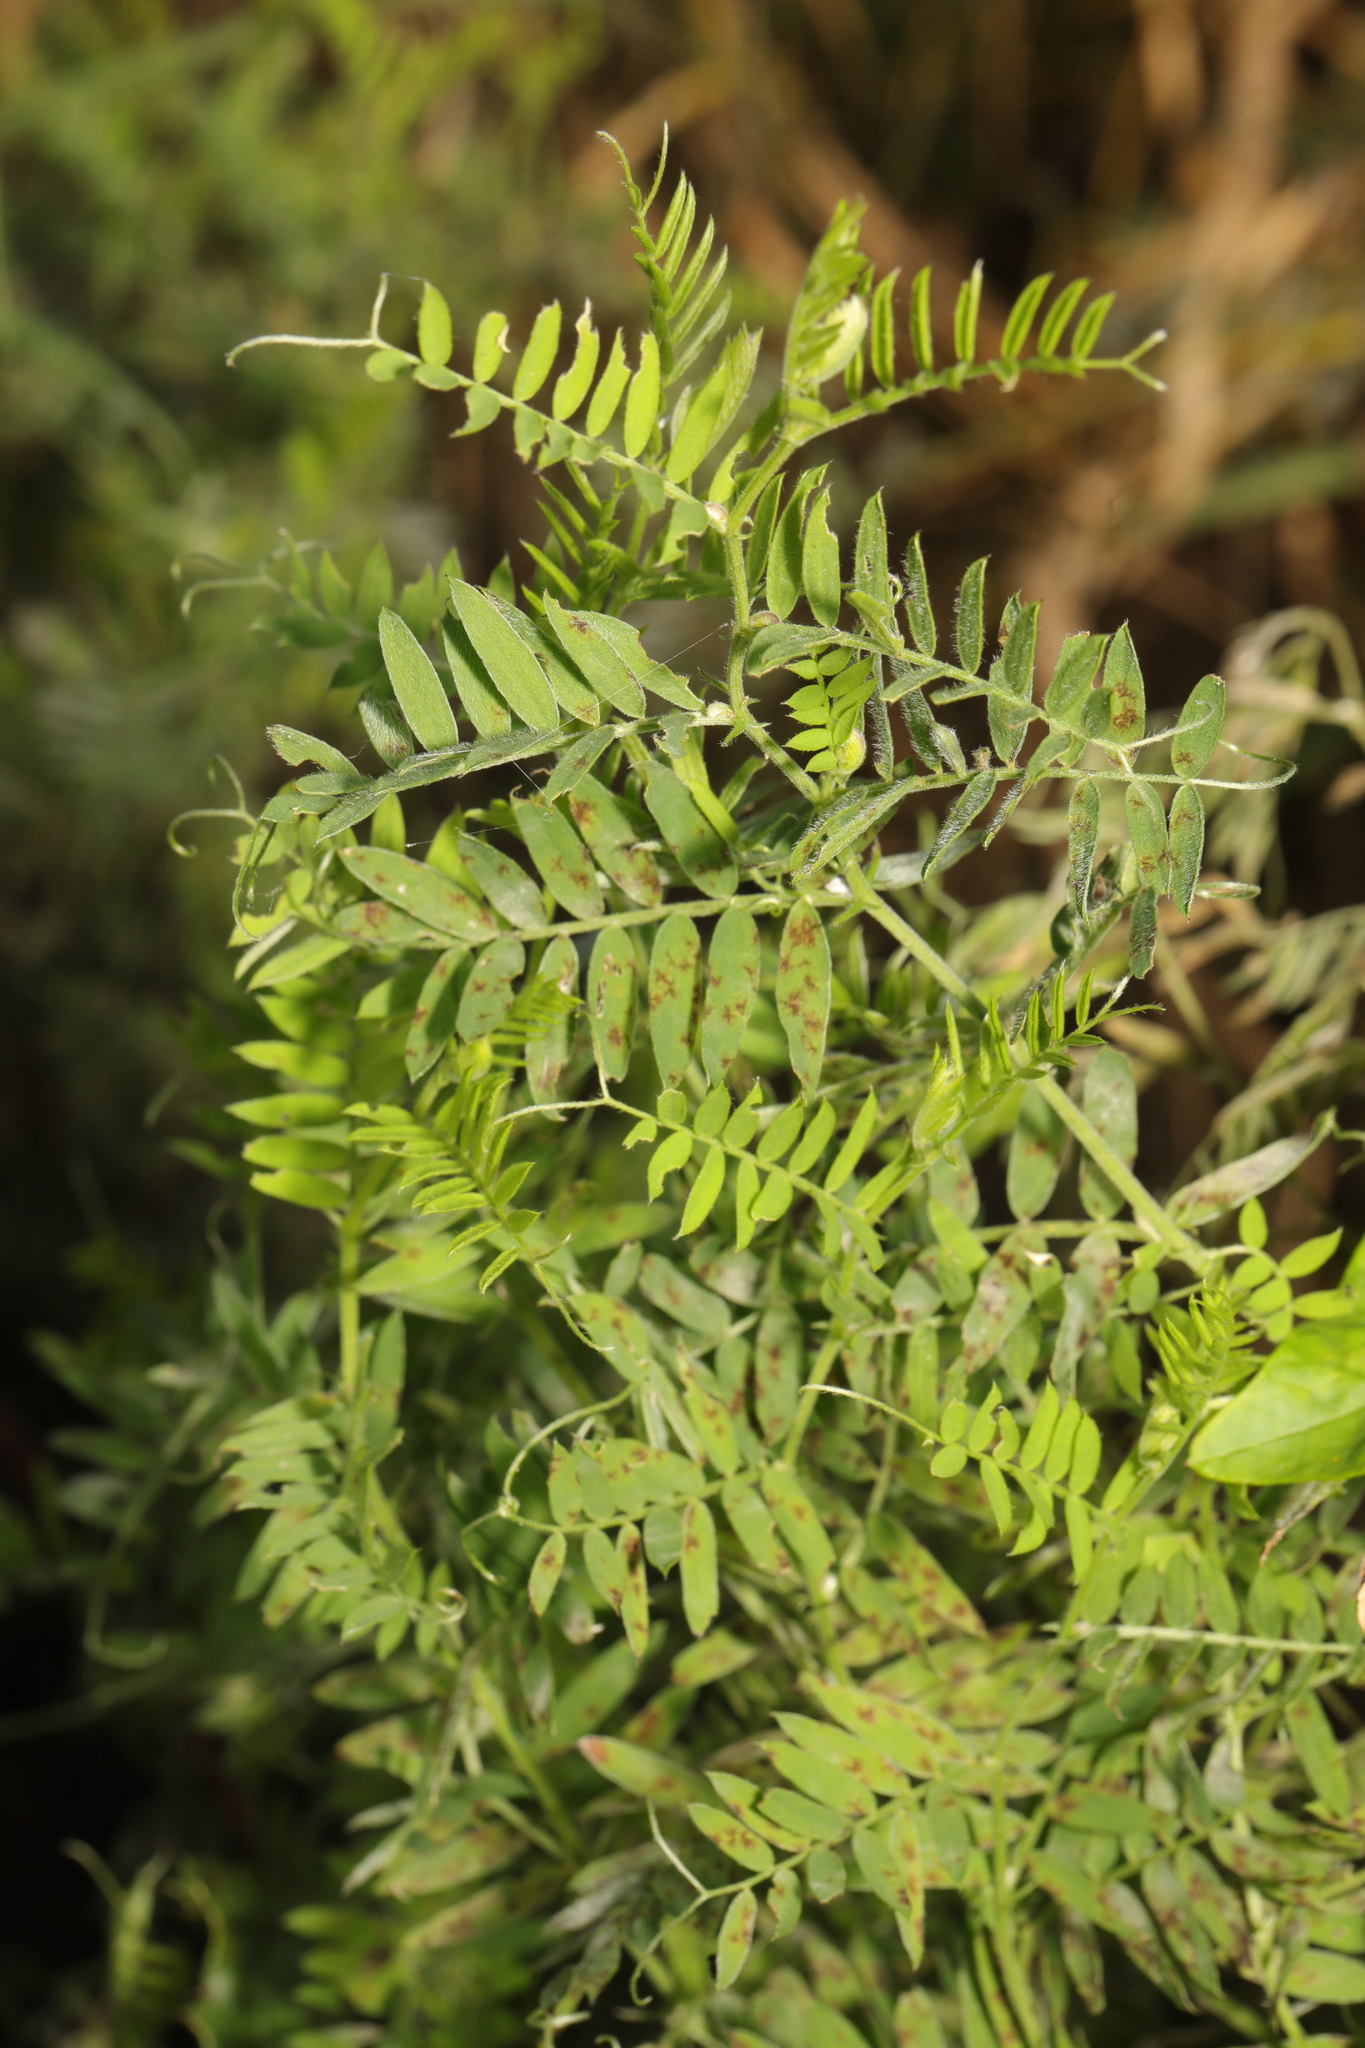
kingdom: Plantae
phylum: Tracheophyta
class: Magnoliopsida
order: Fabales
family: Fabaceae
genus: Vicia
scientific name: Vicia cracca
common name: Bird vetch
